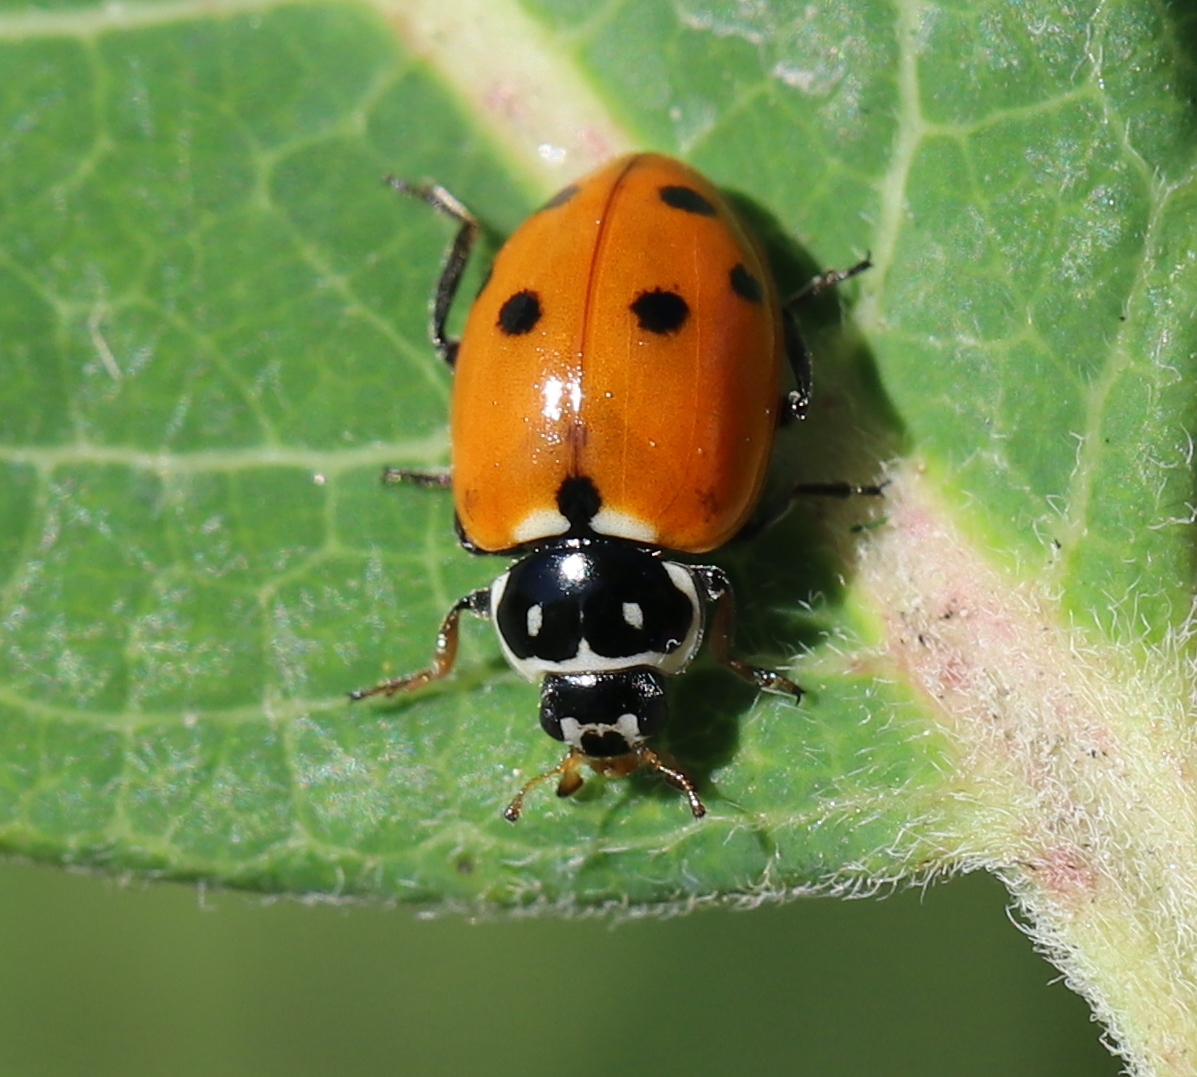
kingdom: Animalia
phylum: Arthropoda
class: Insecta
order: Coleoptera
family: Coccinellidae
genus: Hippodamia
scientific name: Hippodamia variegata
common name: Ladybird beetle
